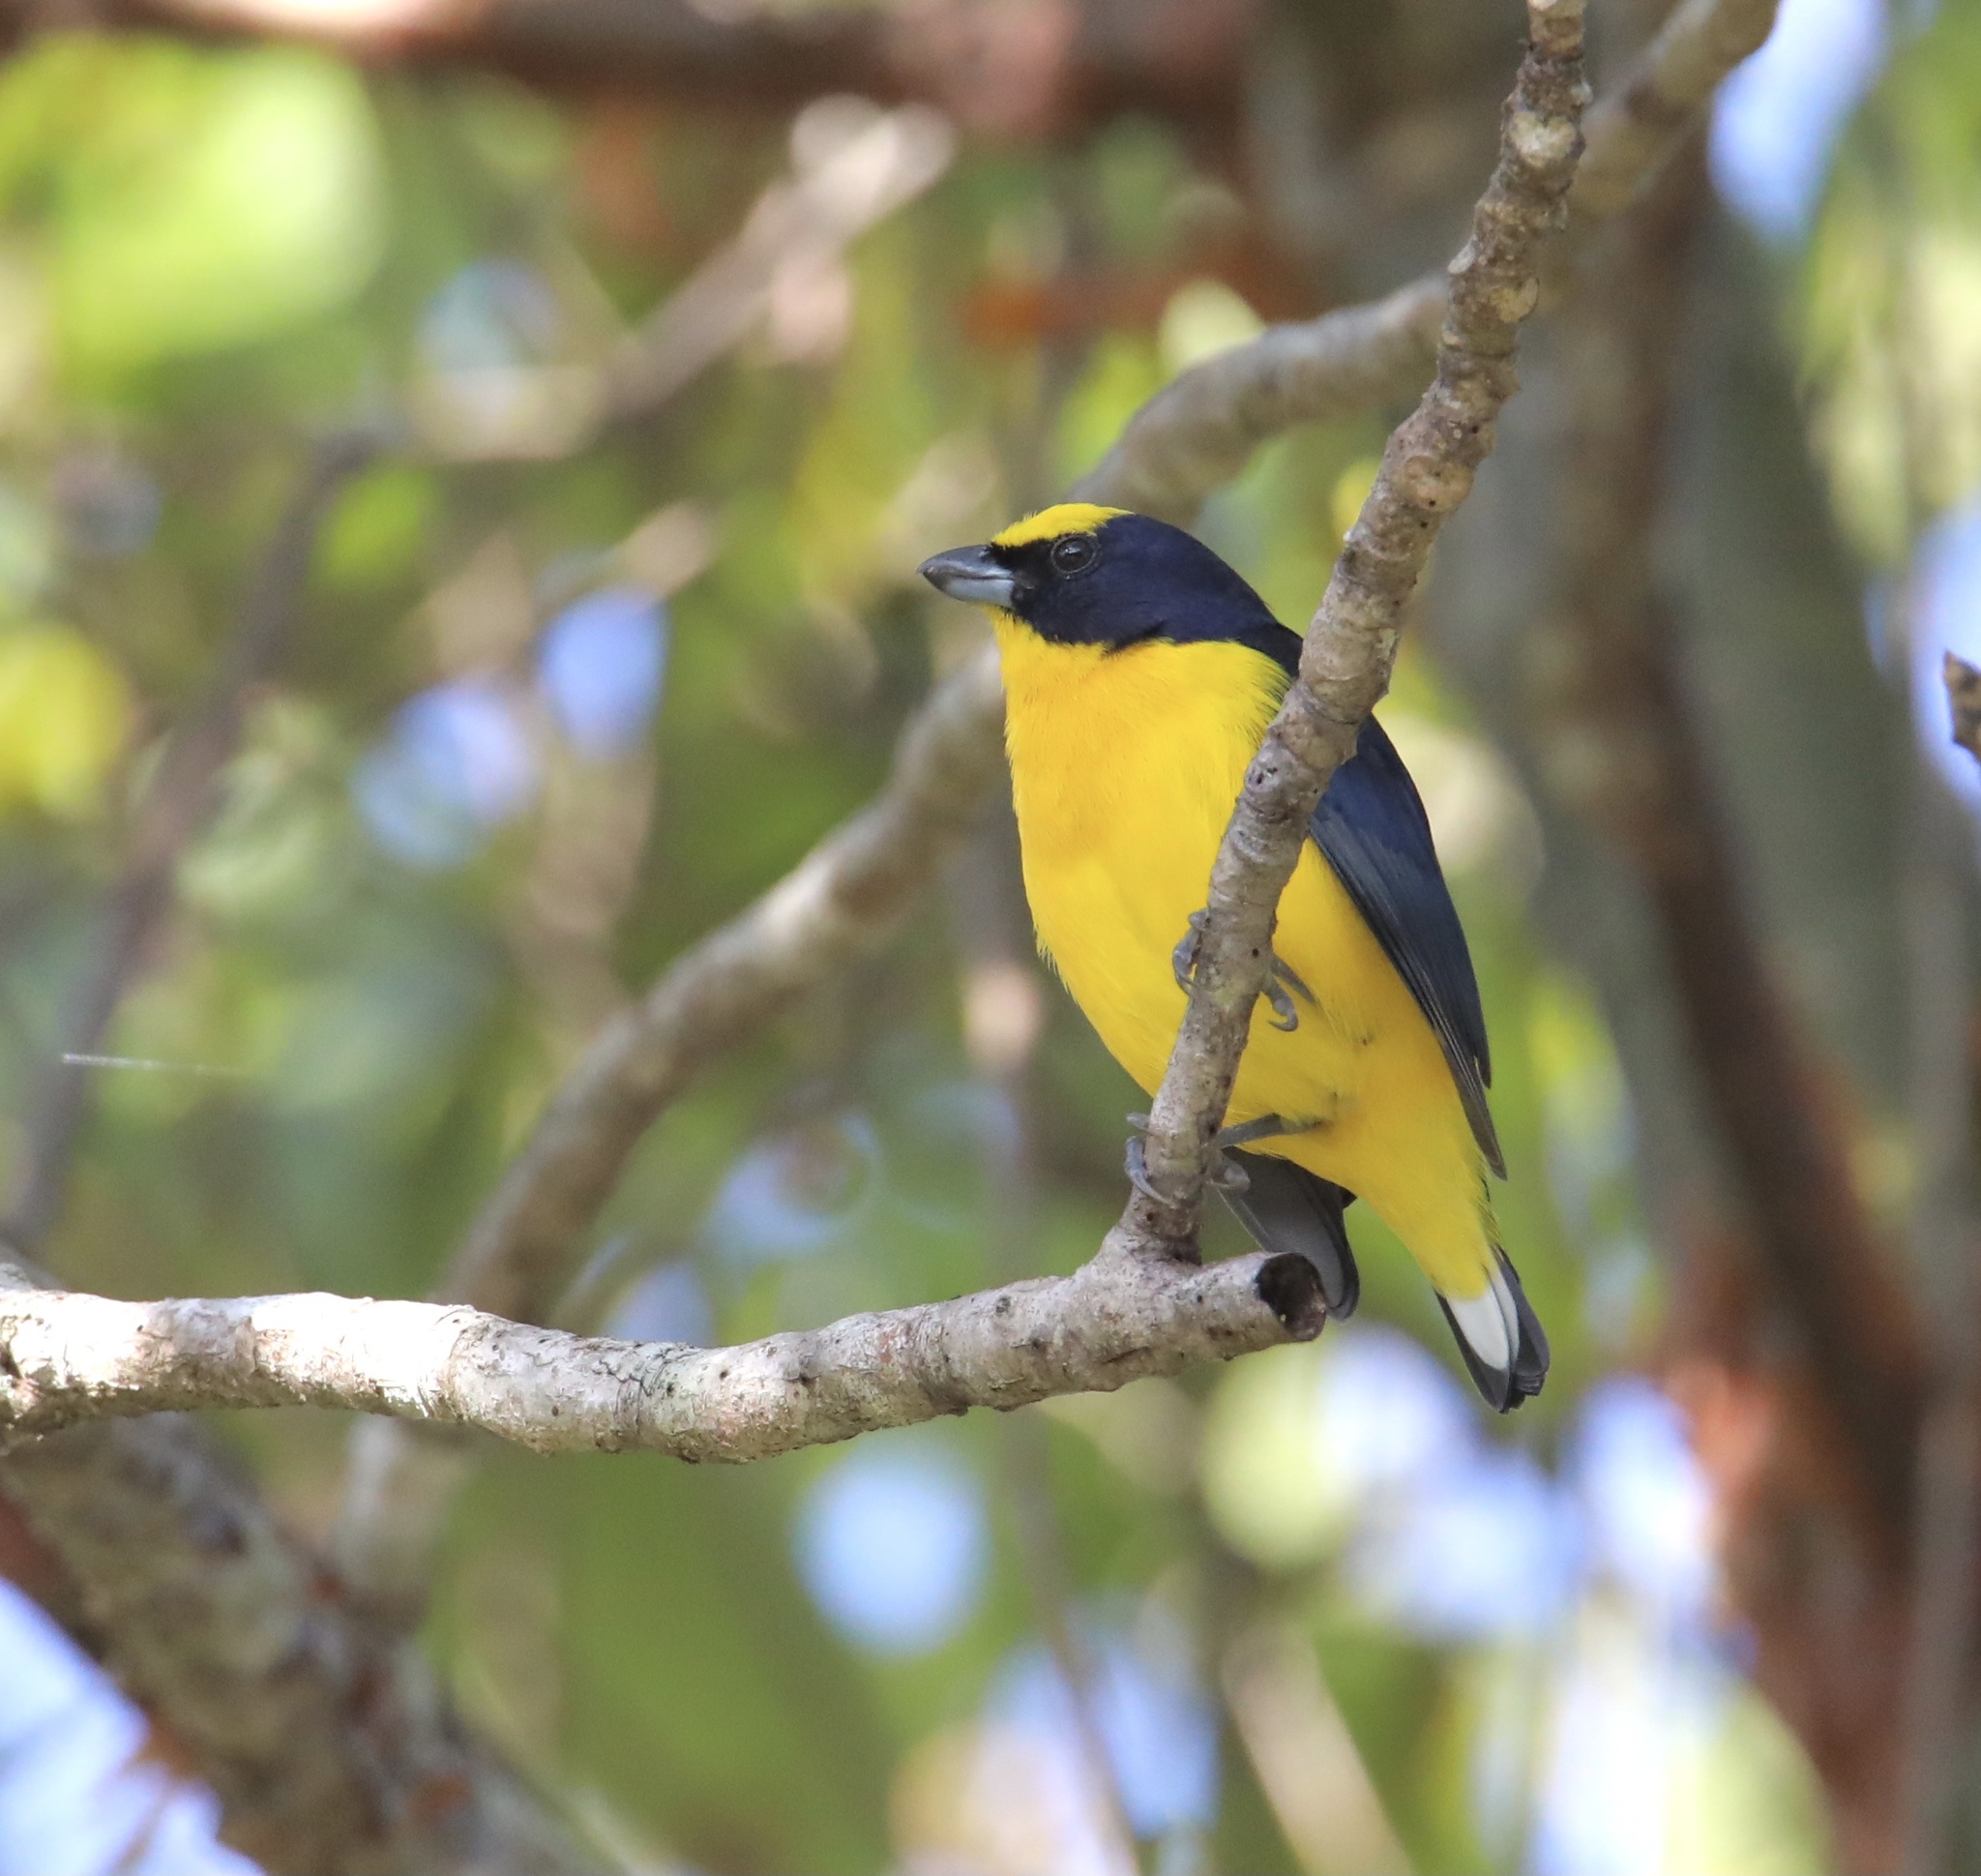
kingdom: Animalia
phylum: Chordata
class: Aves
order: Passeriformes
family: Fringillidae
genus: Euphonia
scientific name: Euphonia laniirostris
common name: Thick-billed euphonia
